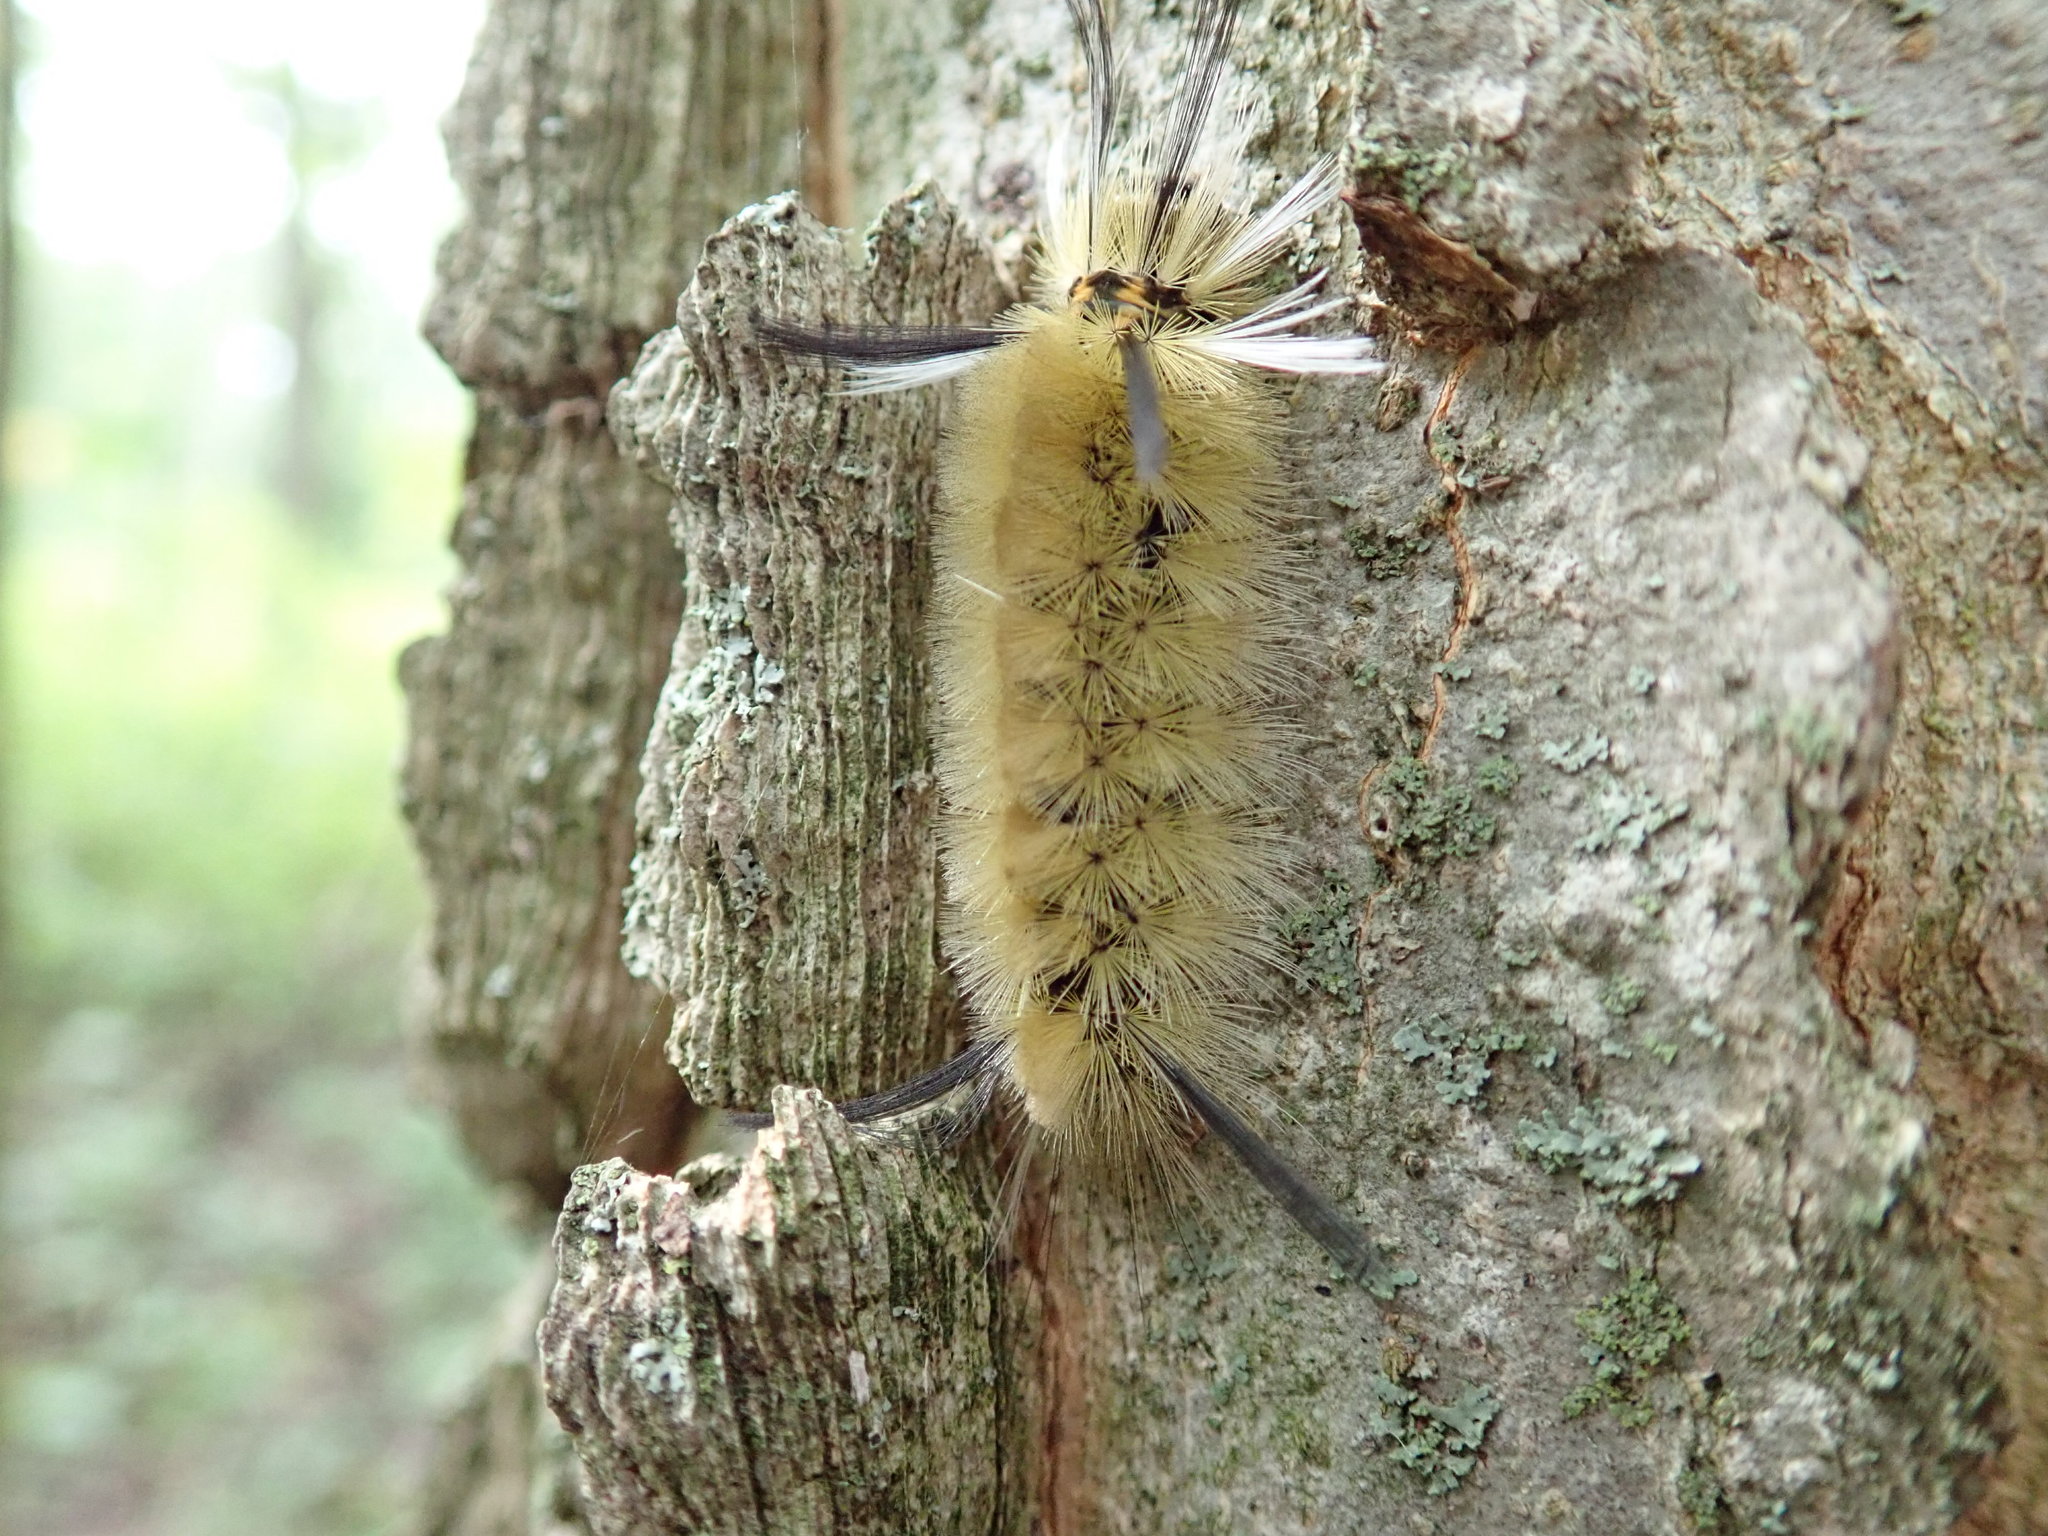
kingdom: Animalia
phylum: Arthropoda
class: Insecta
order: Lepidoptera
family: Erebidae
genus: Halysidota
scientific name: Halysidota tessellaris
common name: Banded tussock moth
